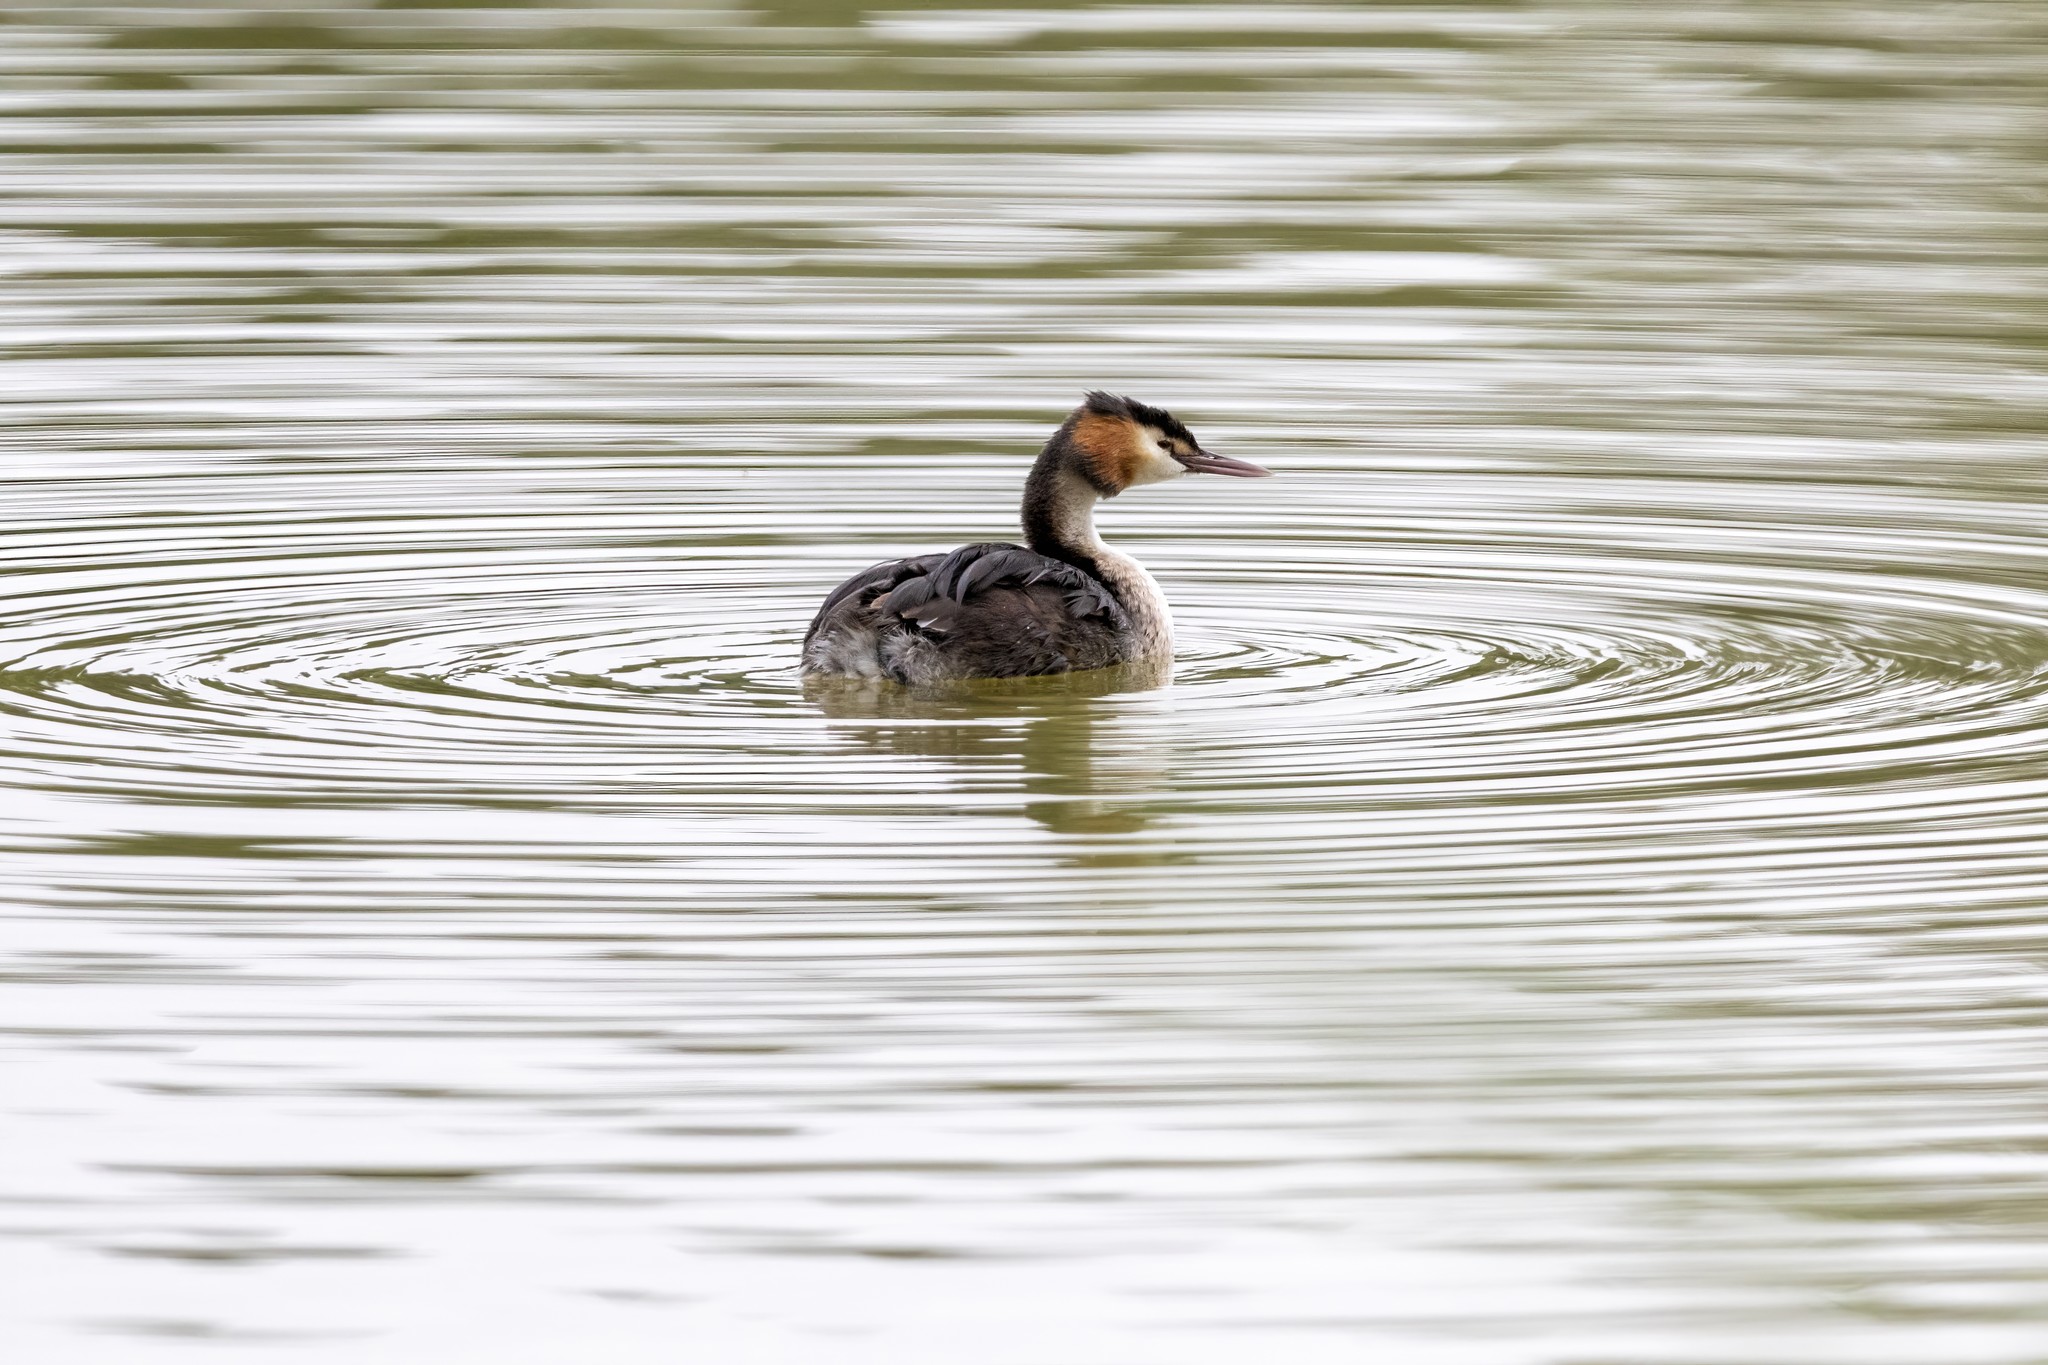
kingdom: Animalia
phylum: Chordata
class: Aves
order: Podicipediformes
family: Podicipedidae
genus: Podiceps
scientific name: Podiceps cristatus
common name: Great crested grebe
